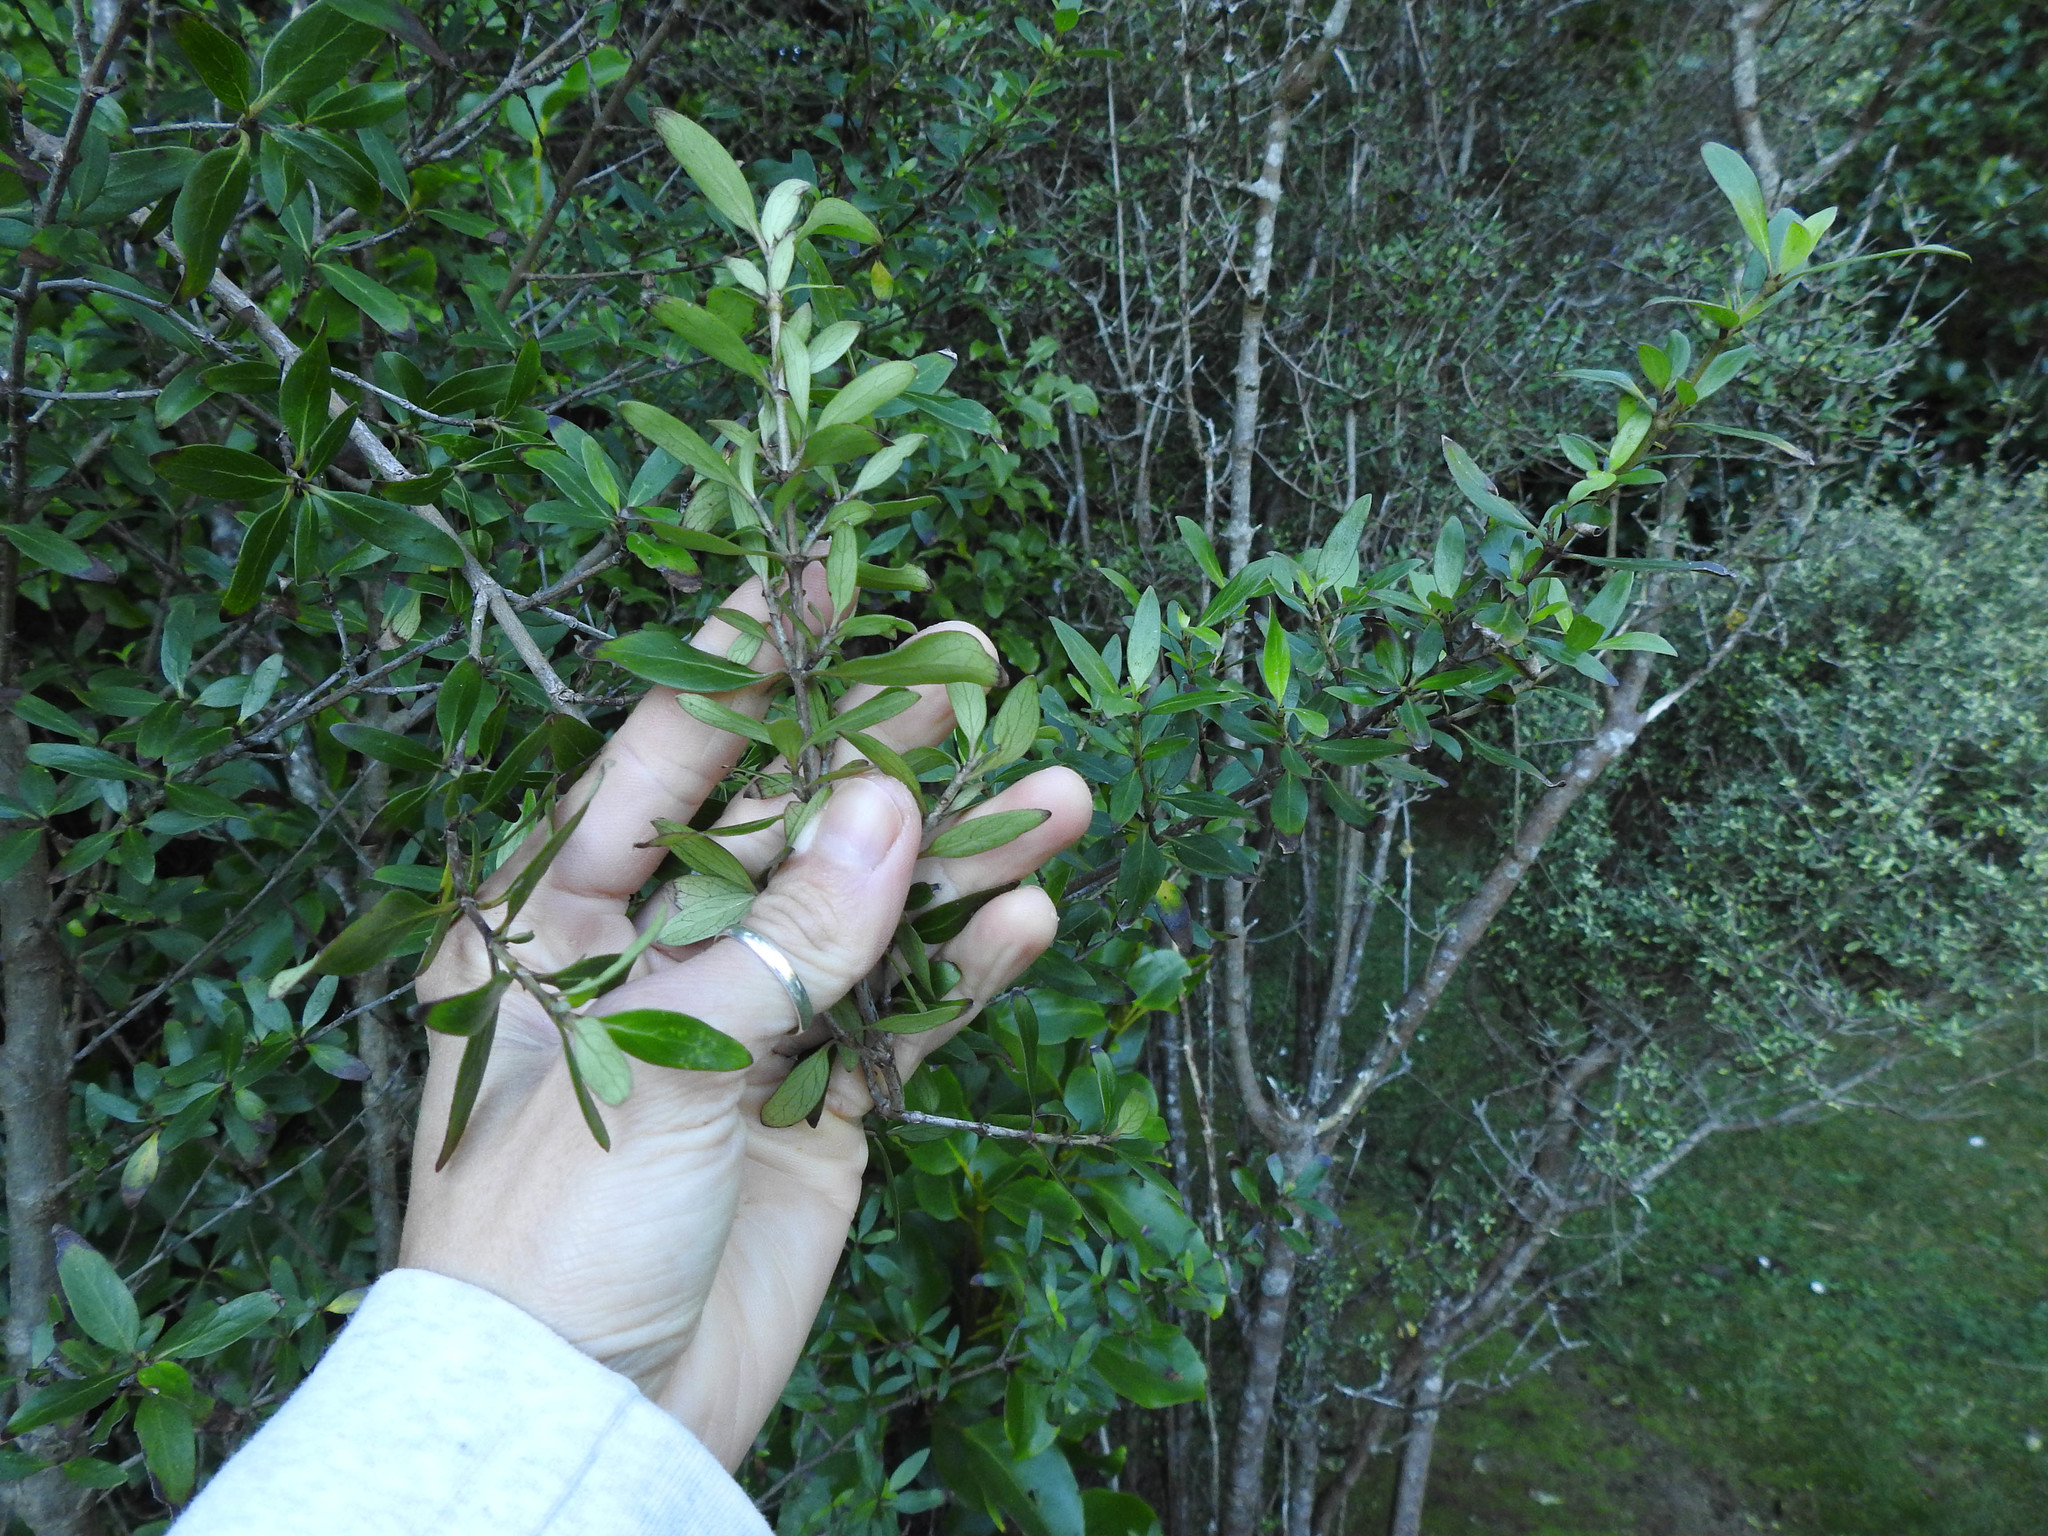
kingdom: Plantae
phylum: Tracheophyta
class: Magnoliopsida
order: Gentianales
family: Rubiaceae
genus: Coprosma
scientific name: Coprosma cunninghamii
